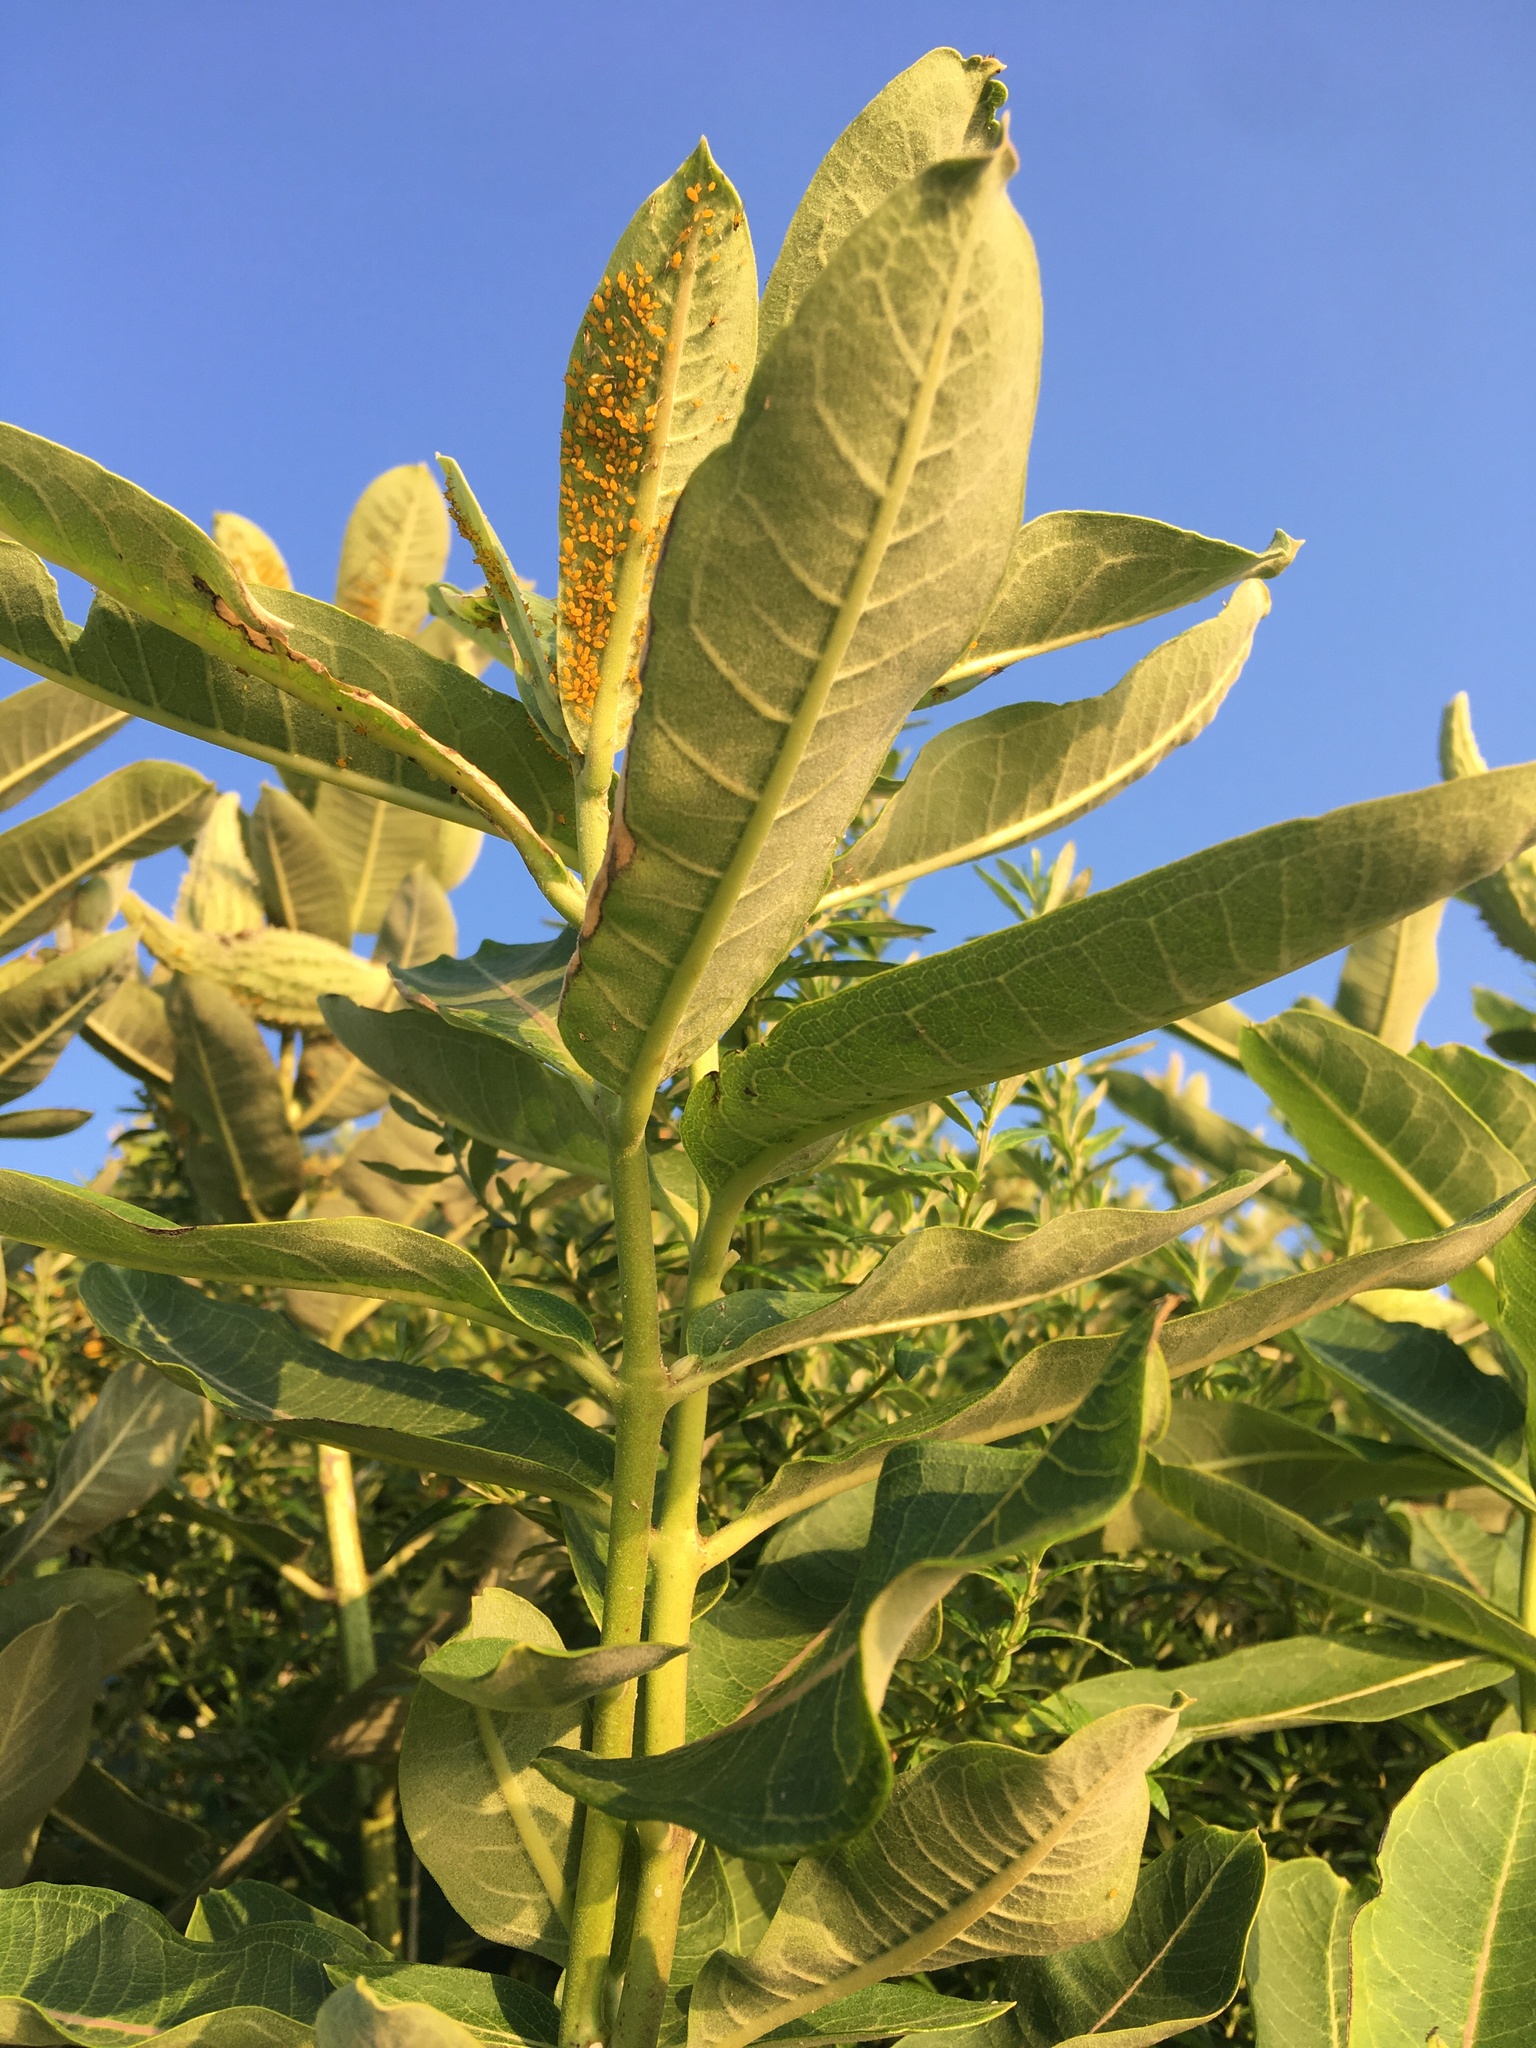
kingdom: Plantae
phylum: Tracheophyta
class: Magnoliopsida
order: Gentianales
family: Apocynaceae
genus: Asclepias
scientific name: Asclepias syriaca
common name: Common milkweed
